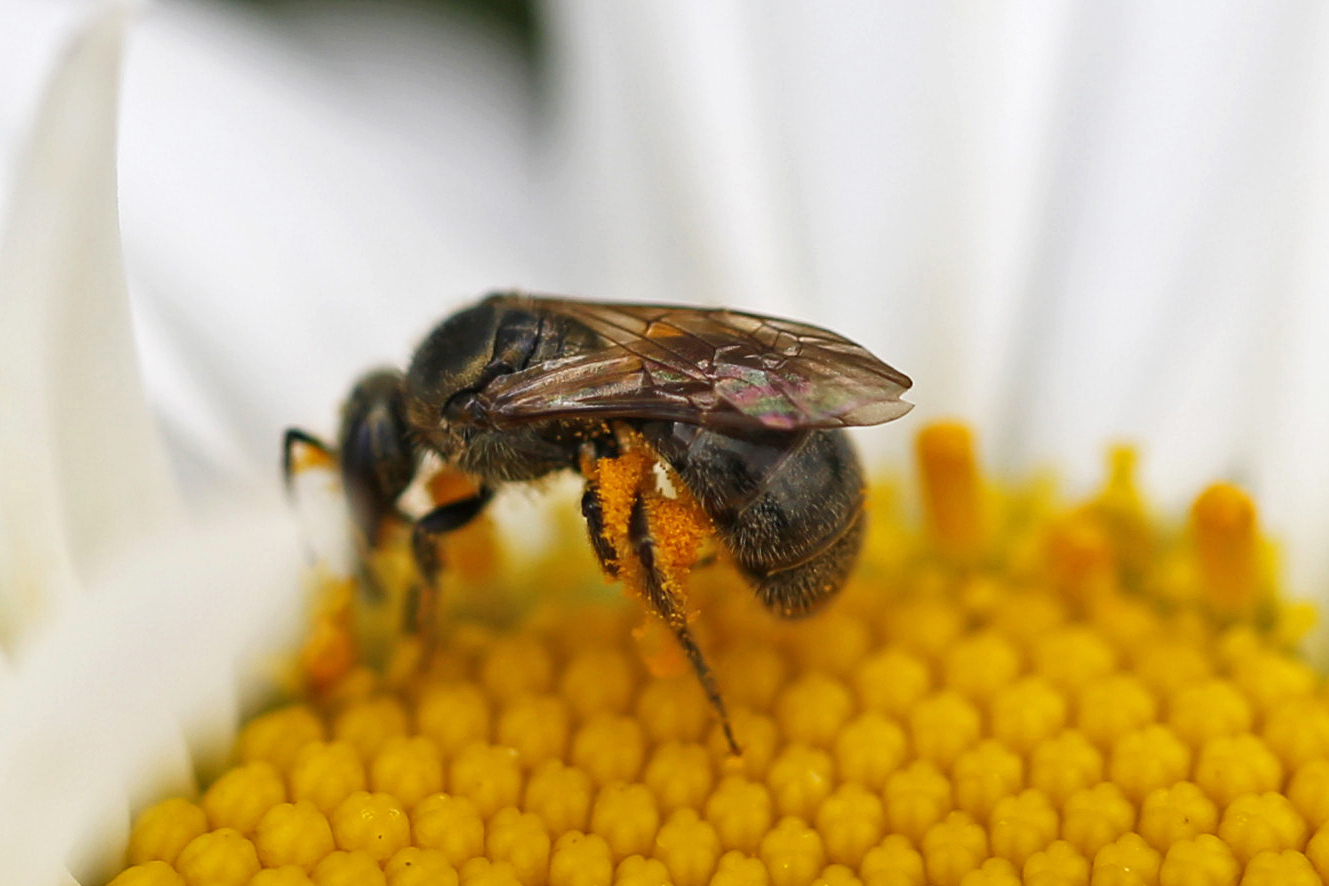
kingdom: Animalia
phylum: Arthropoda
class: Insecta
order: Hymenoptera
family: Halictidae
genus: Lasioglossum
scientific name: Lasioglossum versatum
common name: Experienced sweat bee
